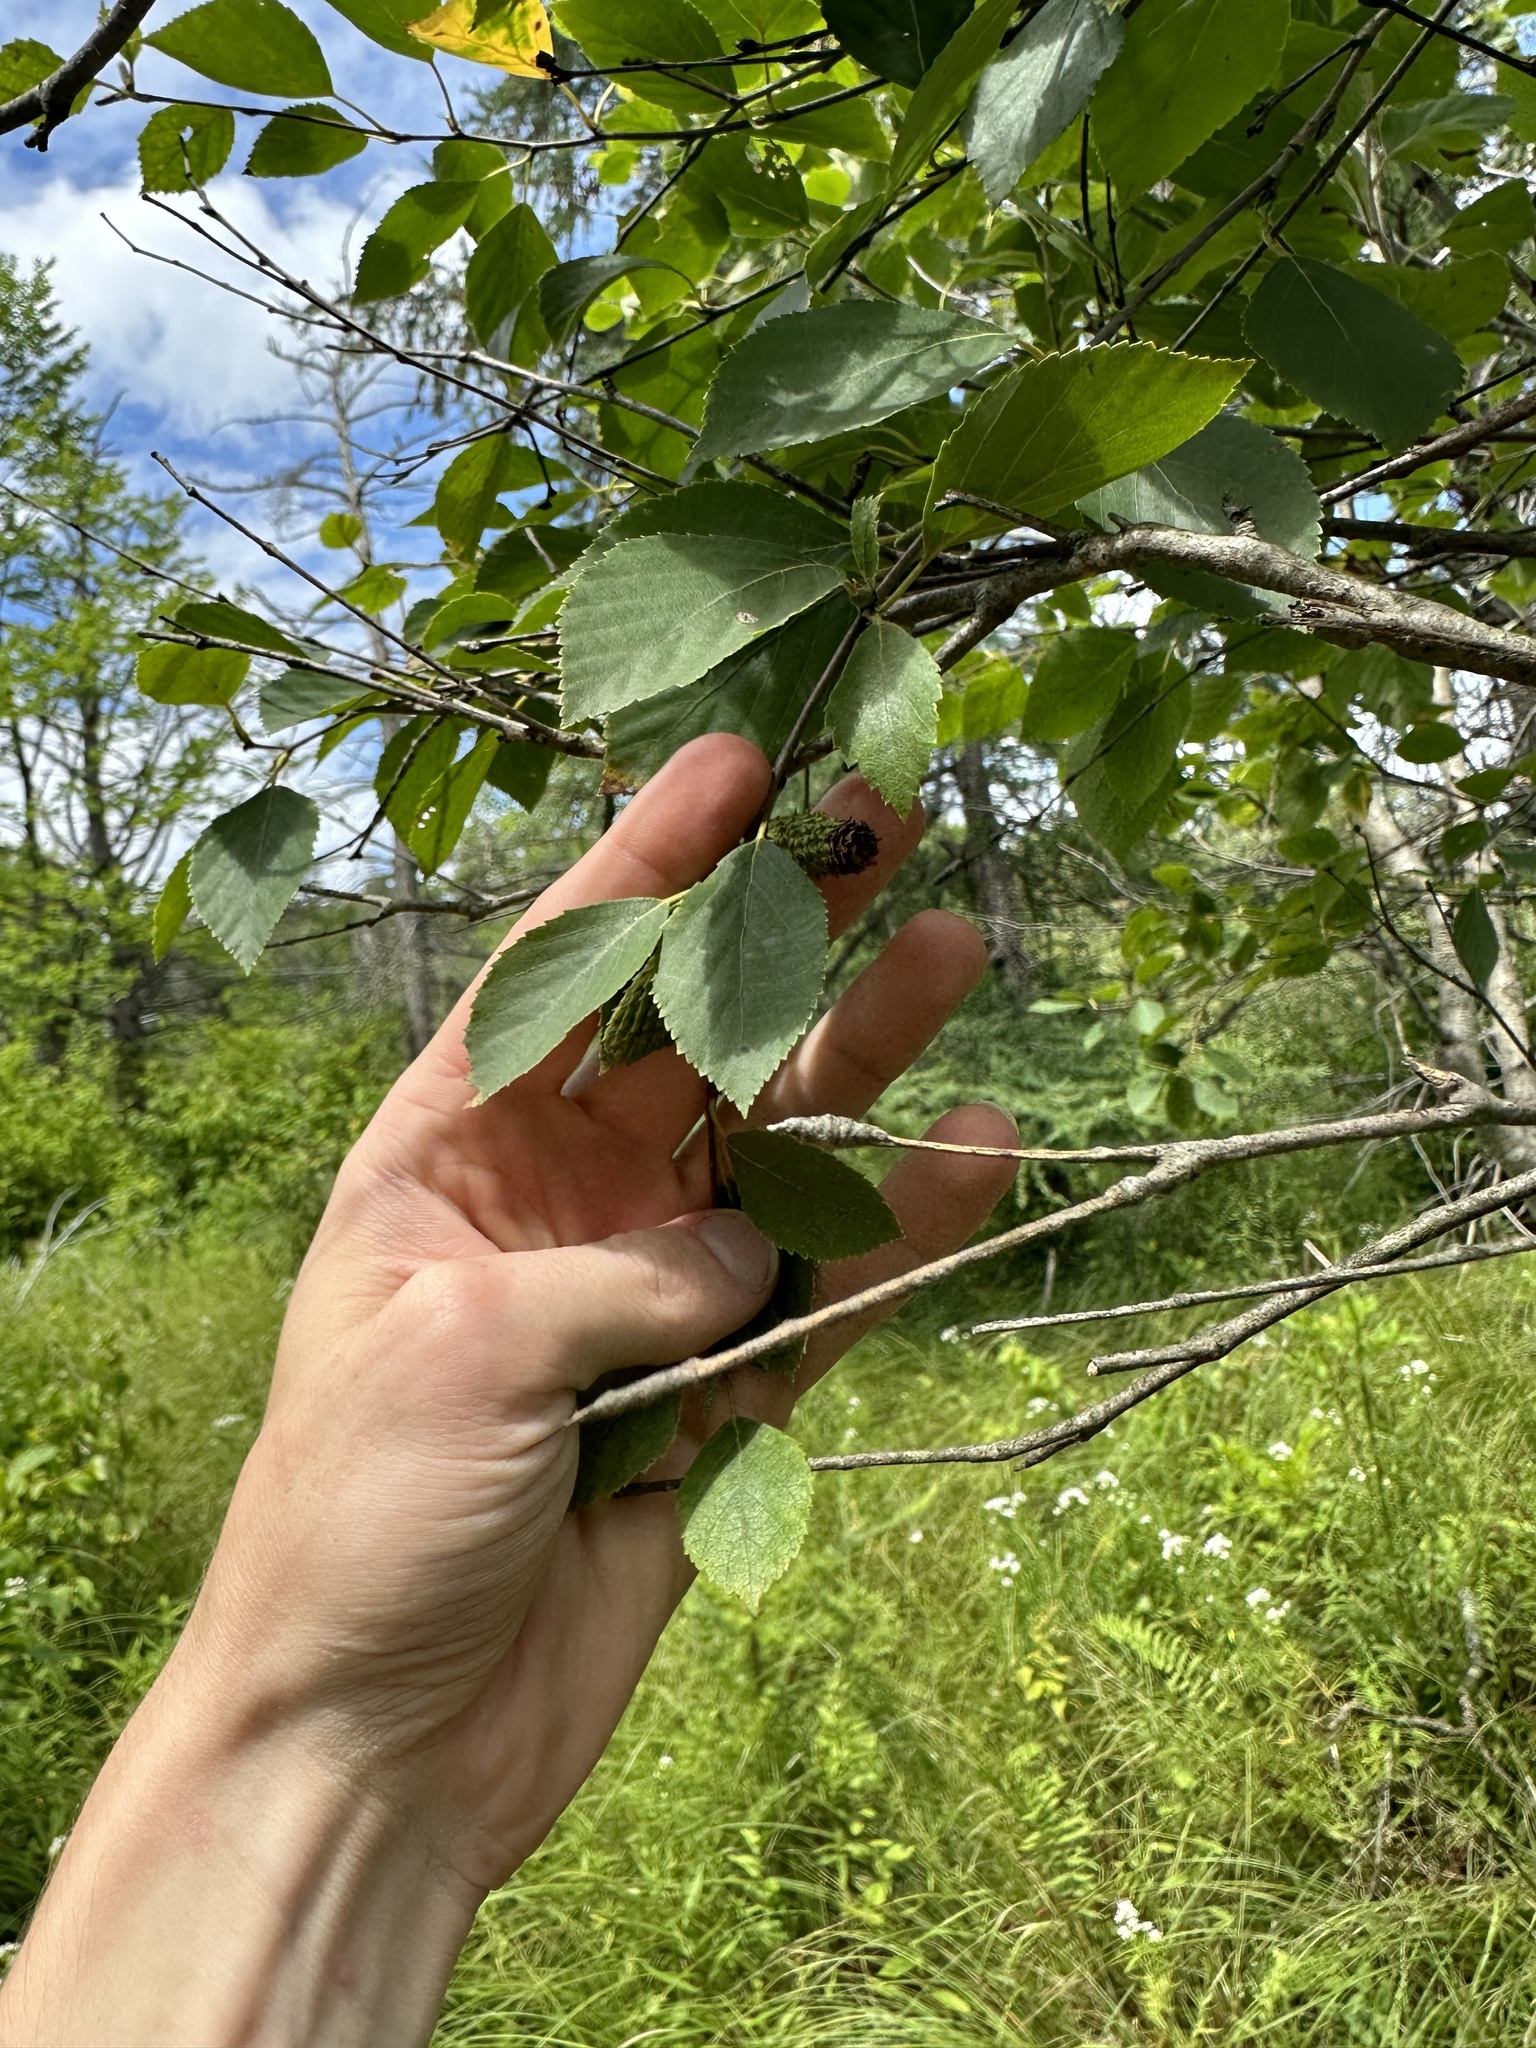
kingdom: Plantae
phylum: Tracheophyta
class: Magnoliopsida
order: Fagales
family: Betulaceae
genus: Betula
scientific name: Betula alleghaniensis
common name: Yellow birch
